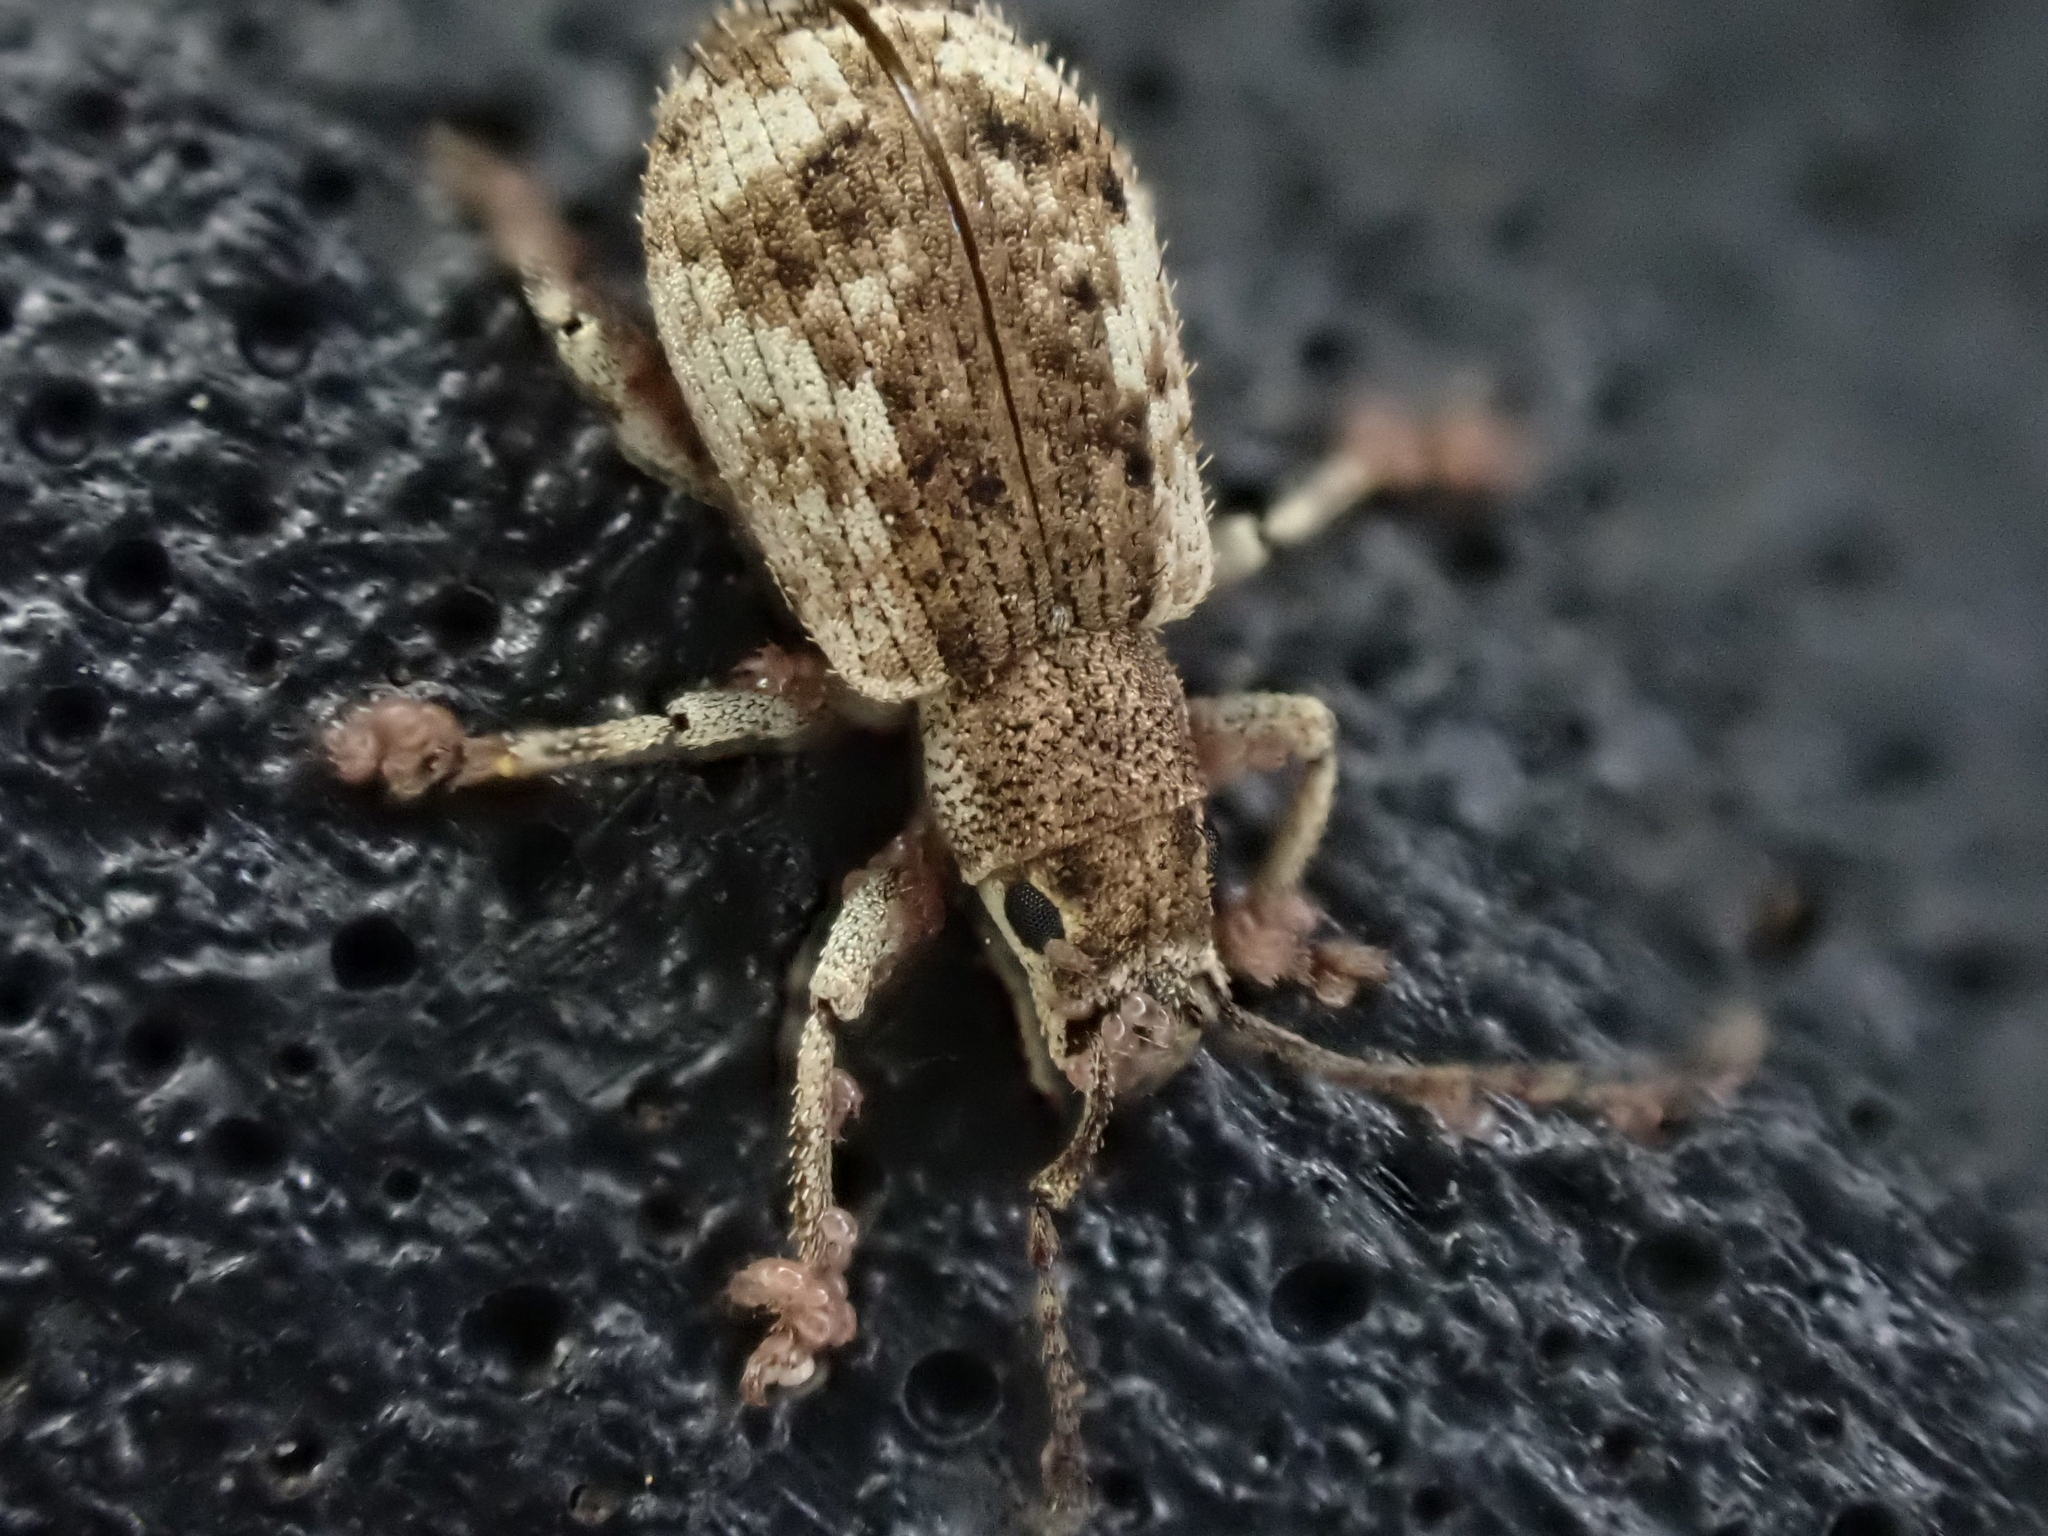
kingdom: Animalia
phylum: Arthropoda
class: Insecta
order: Coleoptera
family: Curculionidae
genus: Pseudoedophrys
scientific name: Pseudoedophrys hilleri
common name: Weevil
